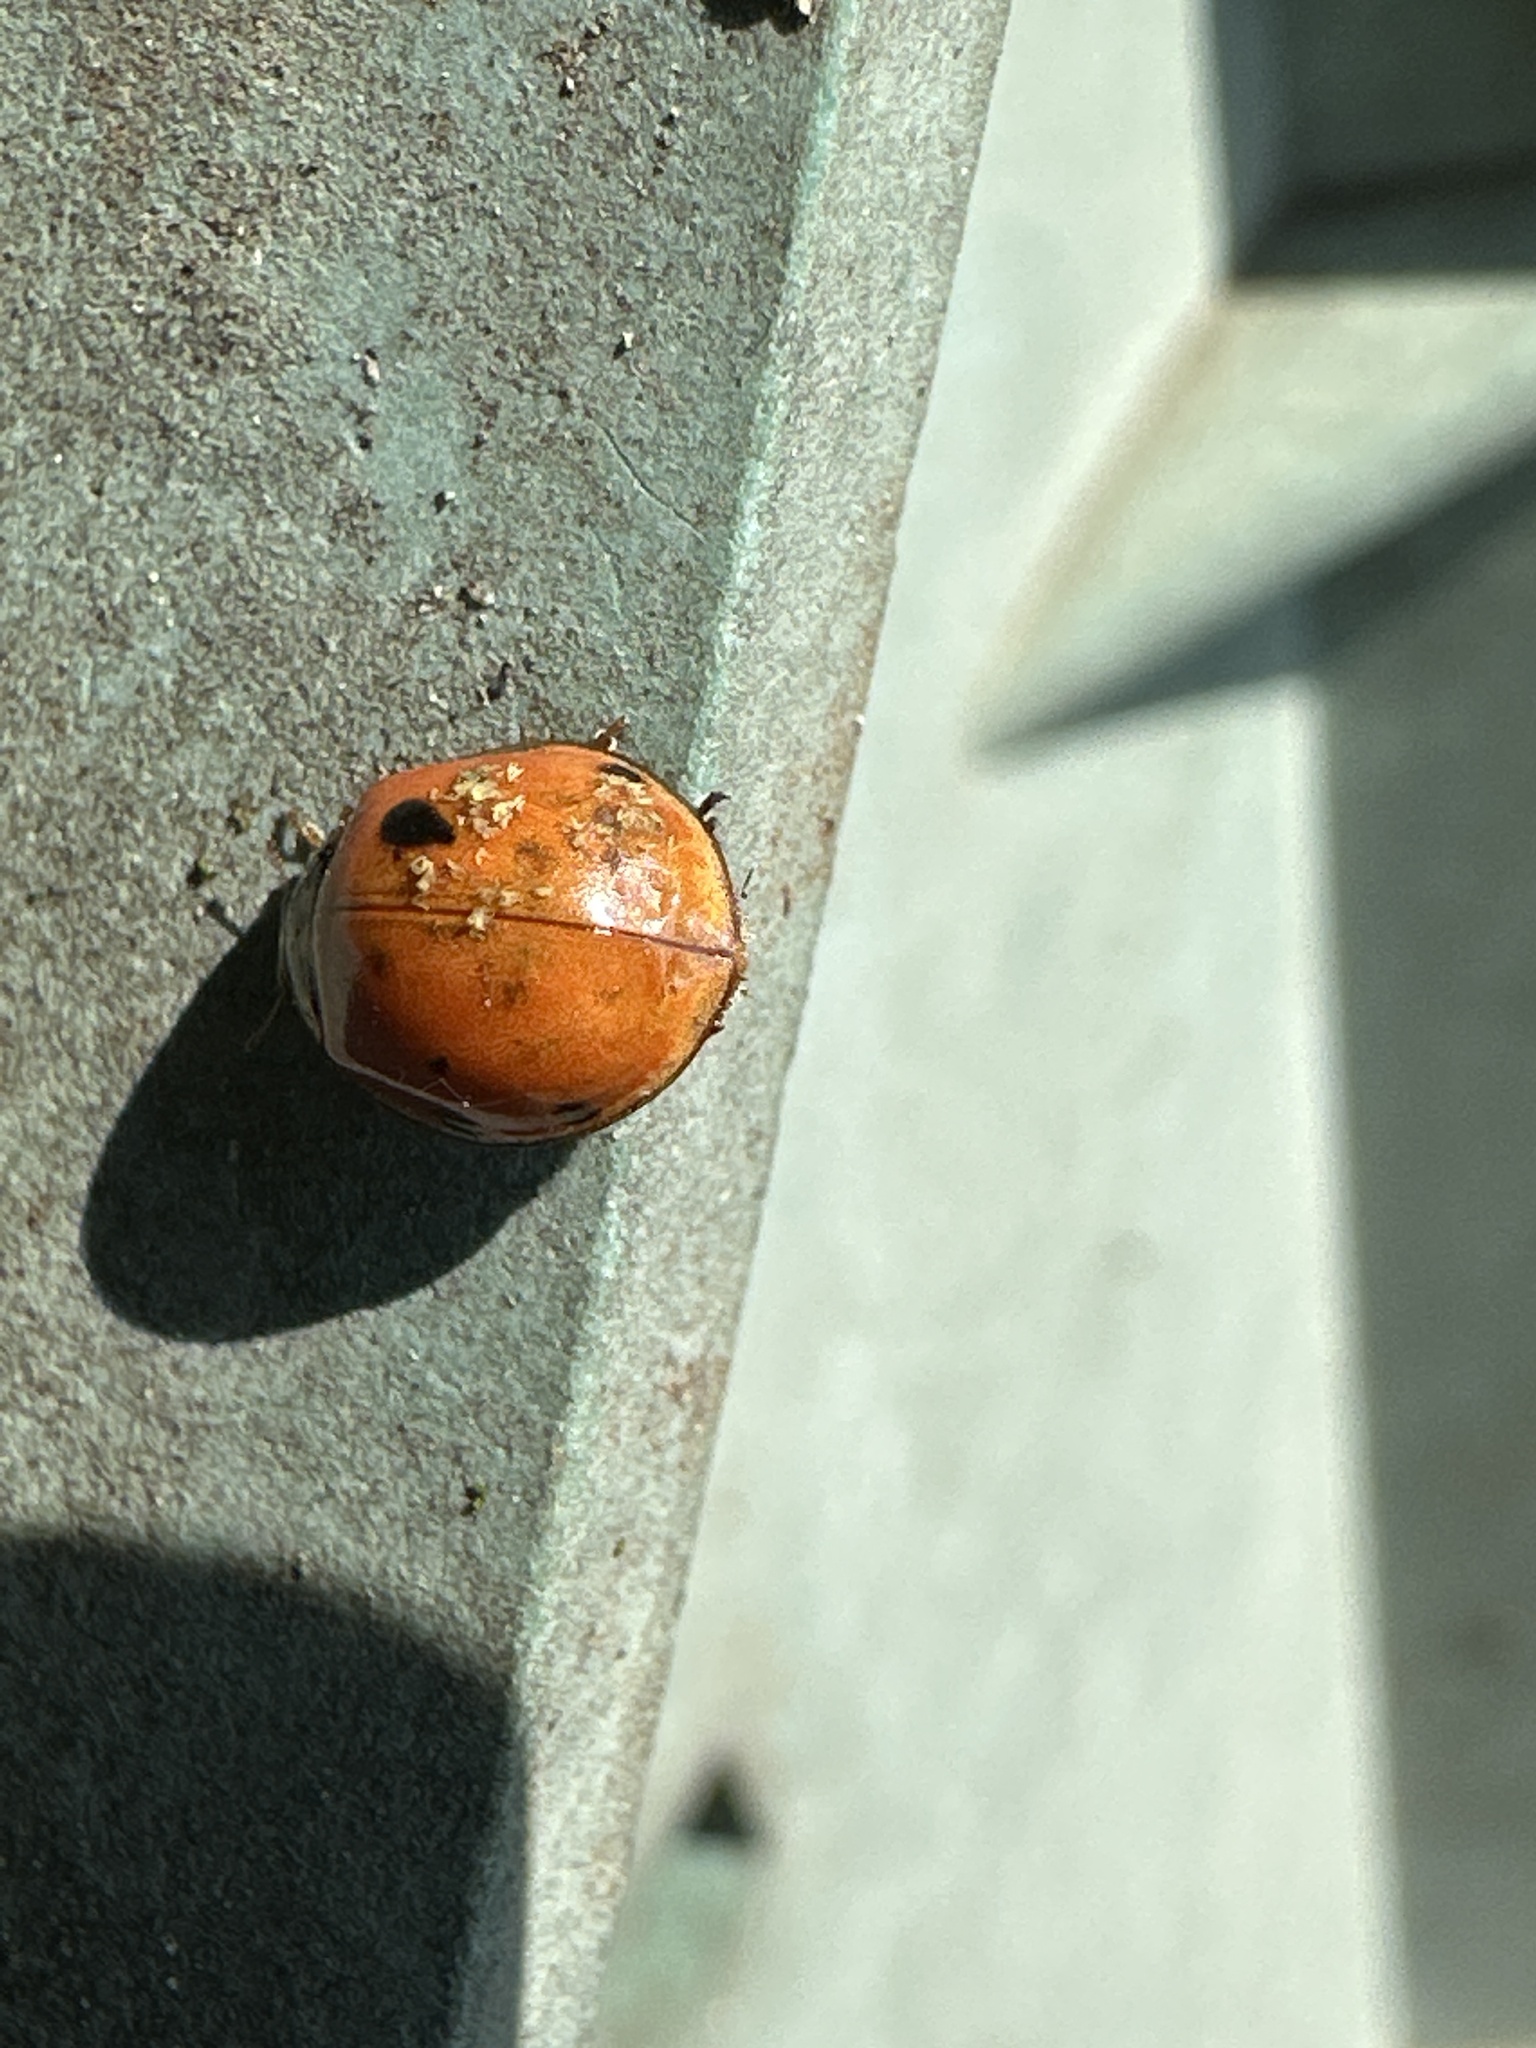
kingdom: Animalia
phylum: Arthropoda
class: Insecta
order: Coleoptera
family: Coccinellidae
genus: Harmonia
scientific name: Harmonia axyridis
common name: Harlequin ladybird
